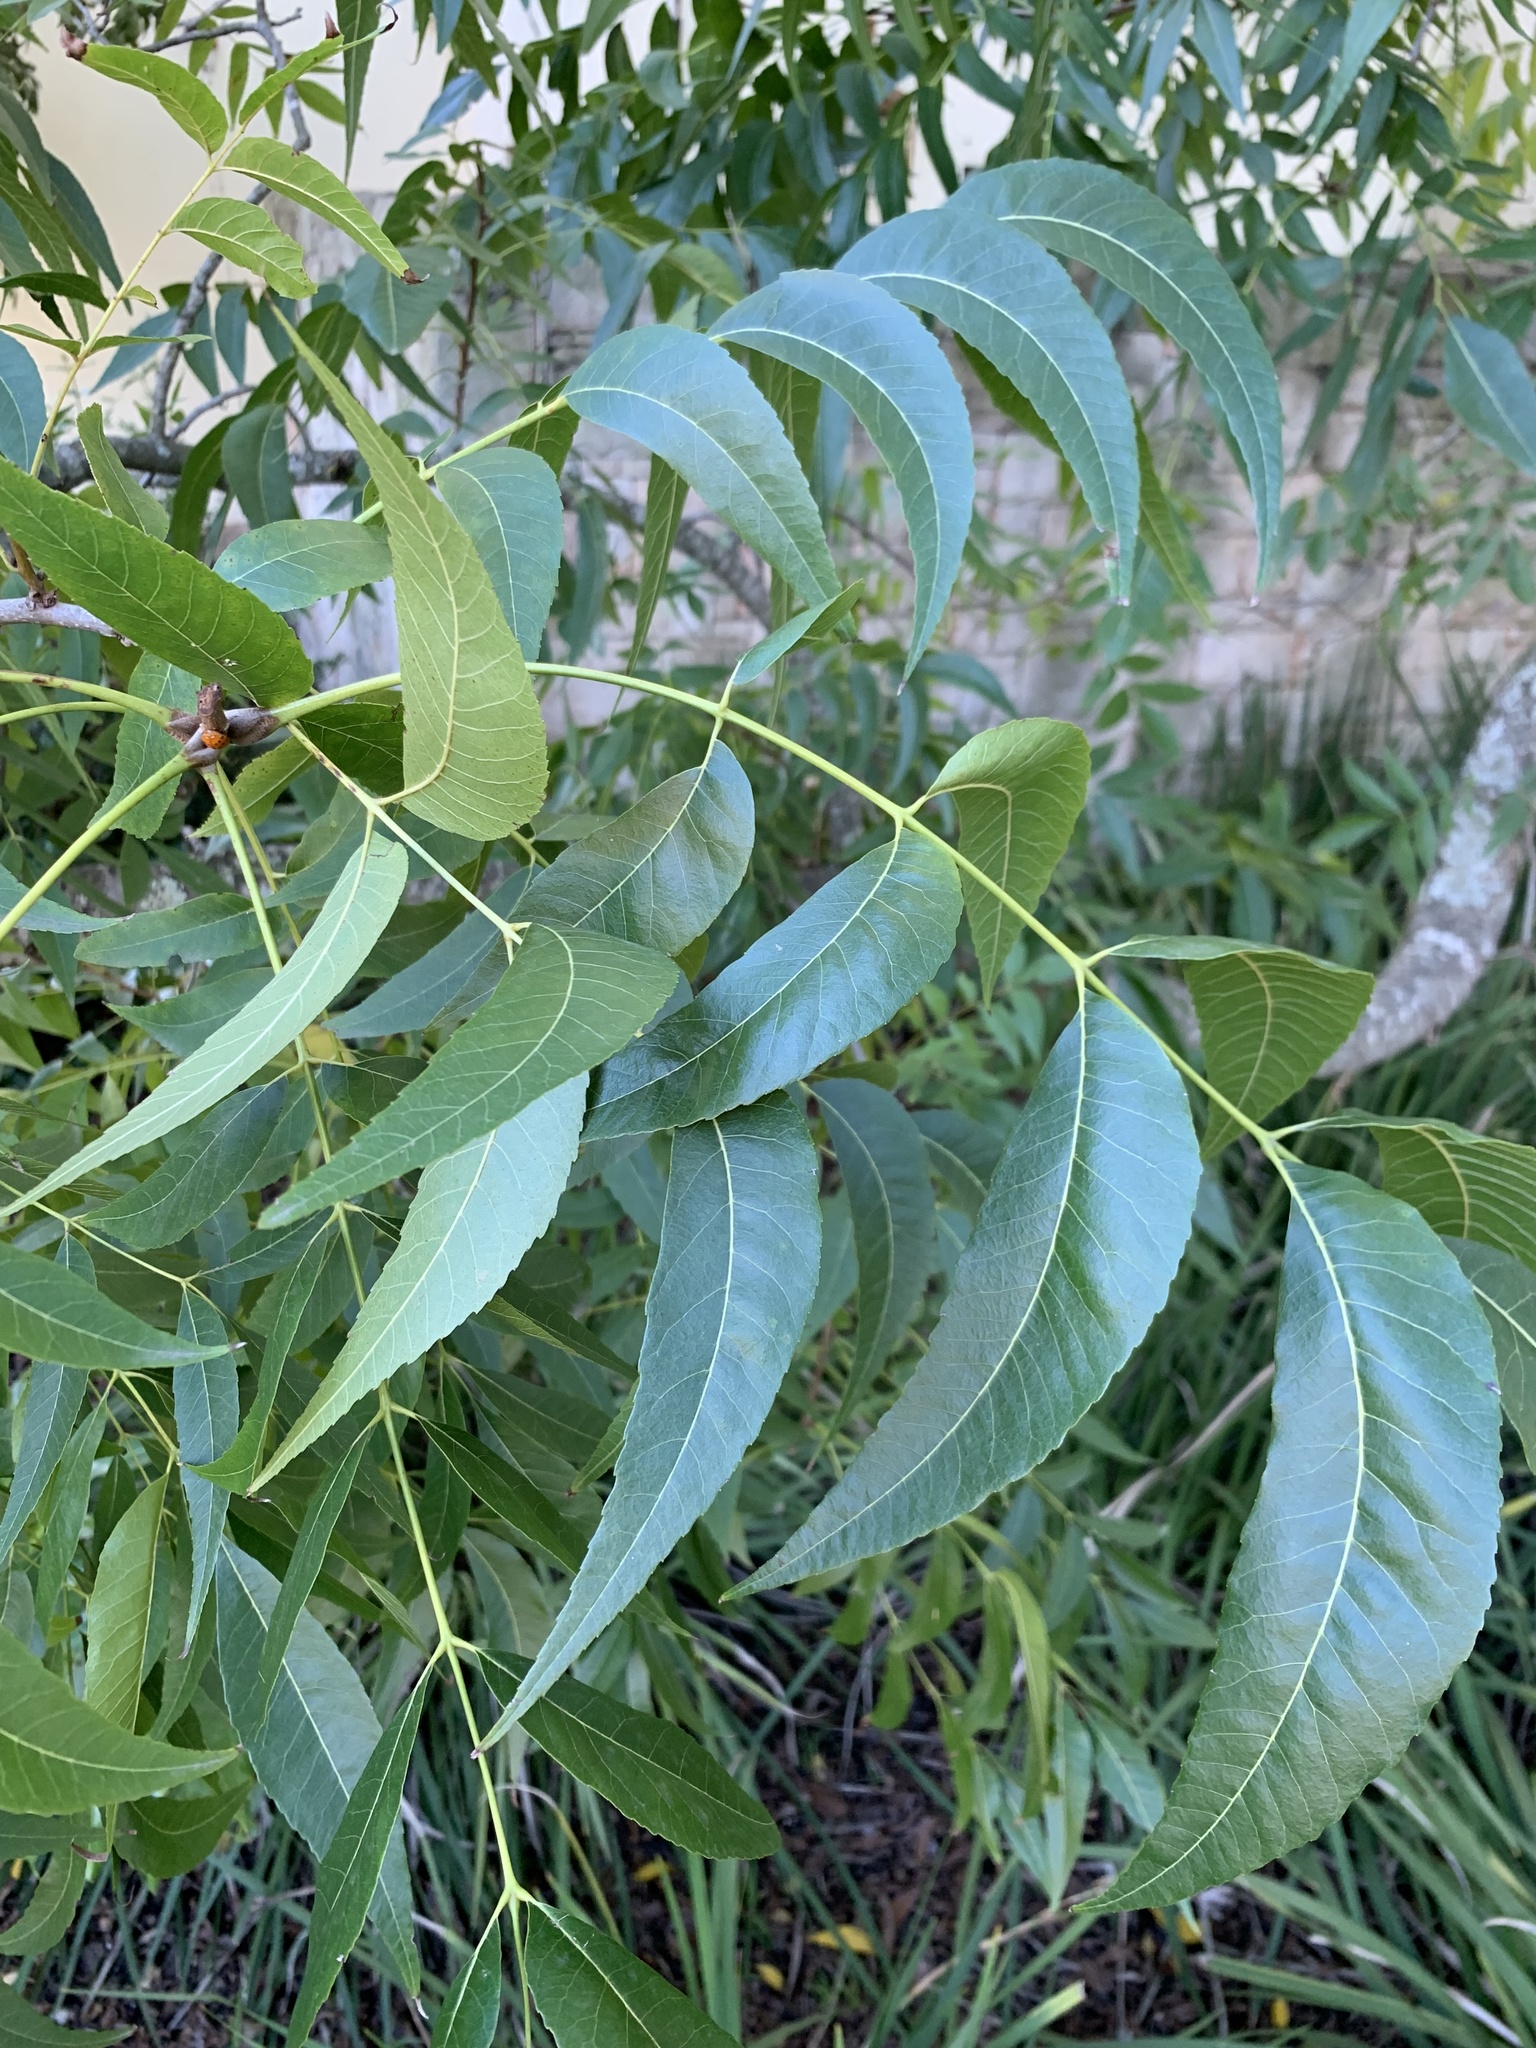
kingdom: Plantae
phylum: Tracheophyta
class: Magnoliopsida
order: Fagales
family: Juglandaceae
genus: Carya
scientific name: Carya illinoinensis
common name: Pecan
